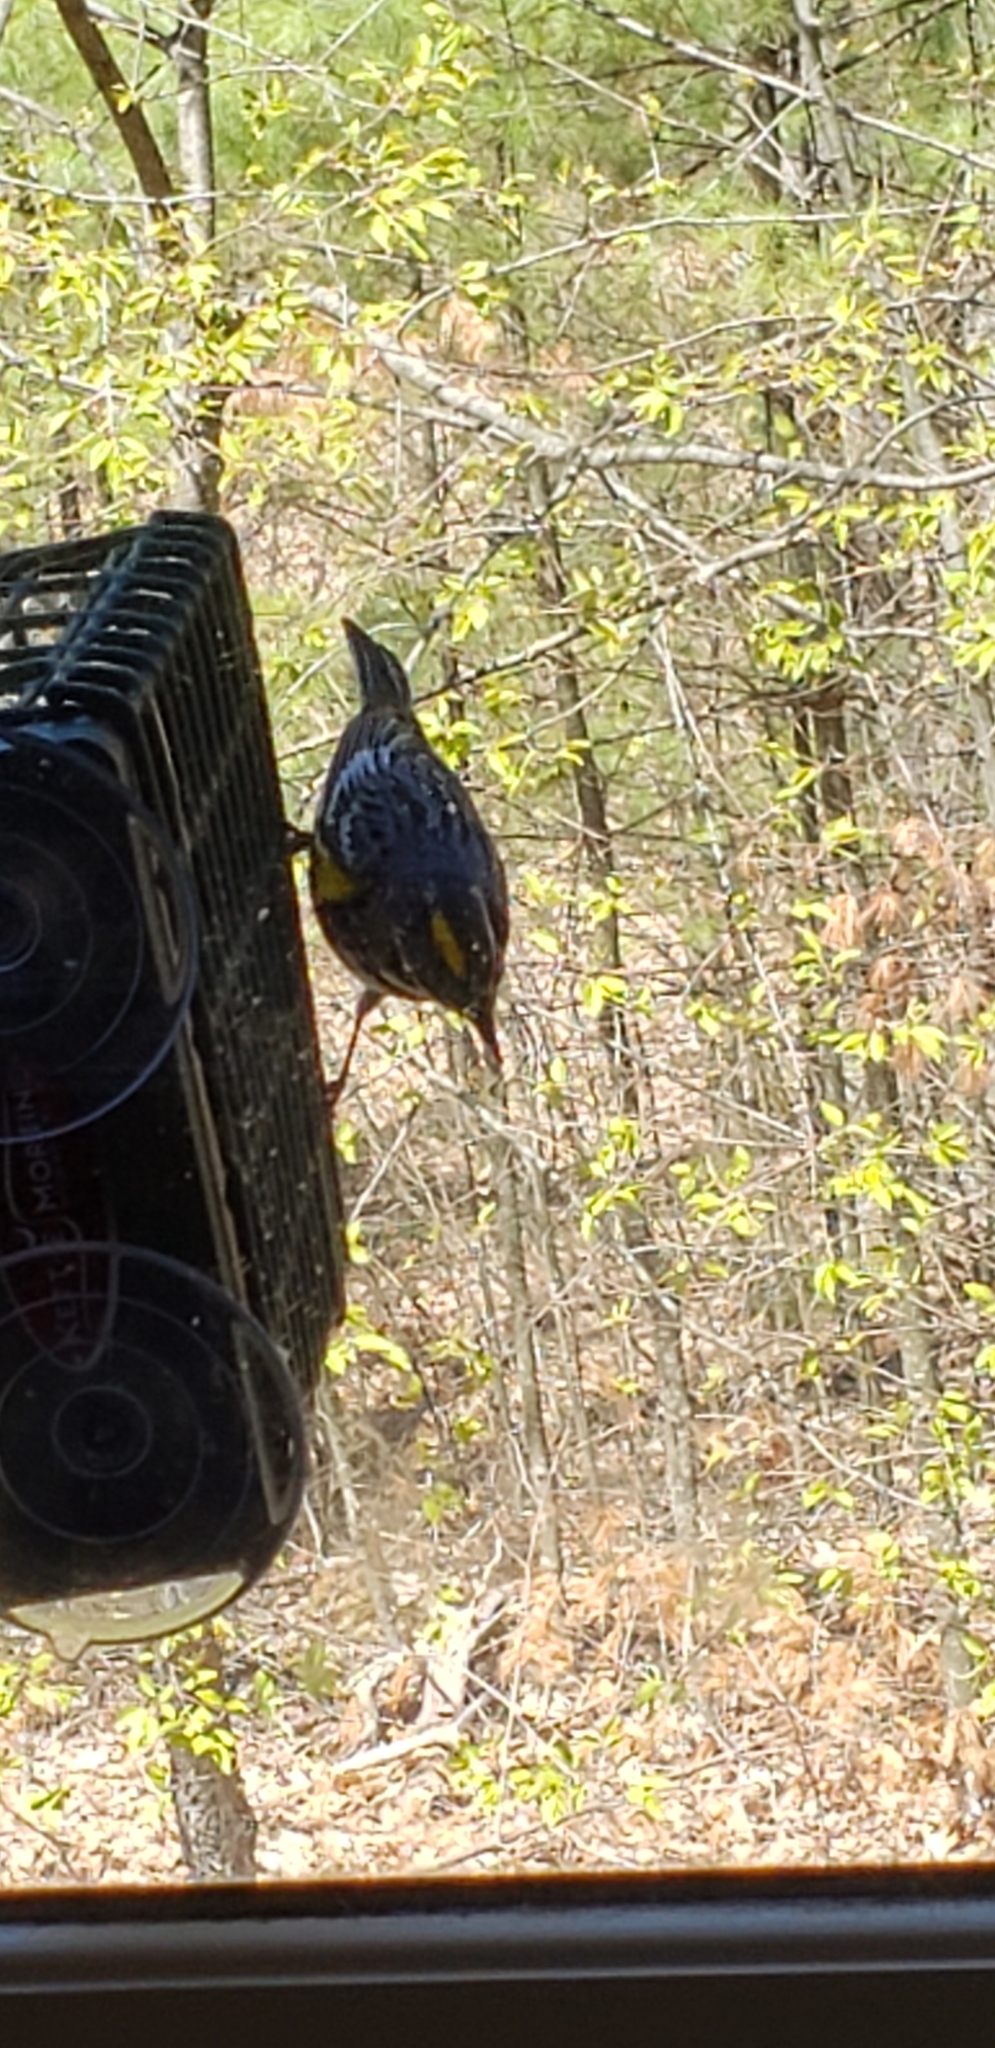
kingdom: Animalia
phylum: Chordata
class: Aves
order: Passeriformes
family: Parulidae
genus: Setophaga
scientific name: Setophaga coronata
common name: Myrtle warbler
